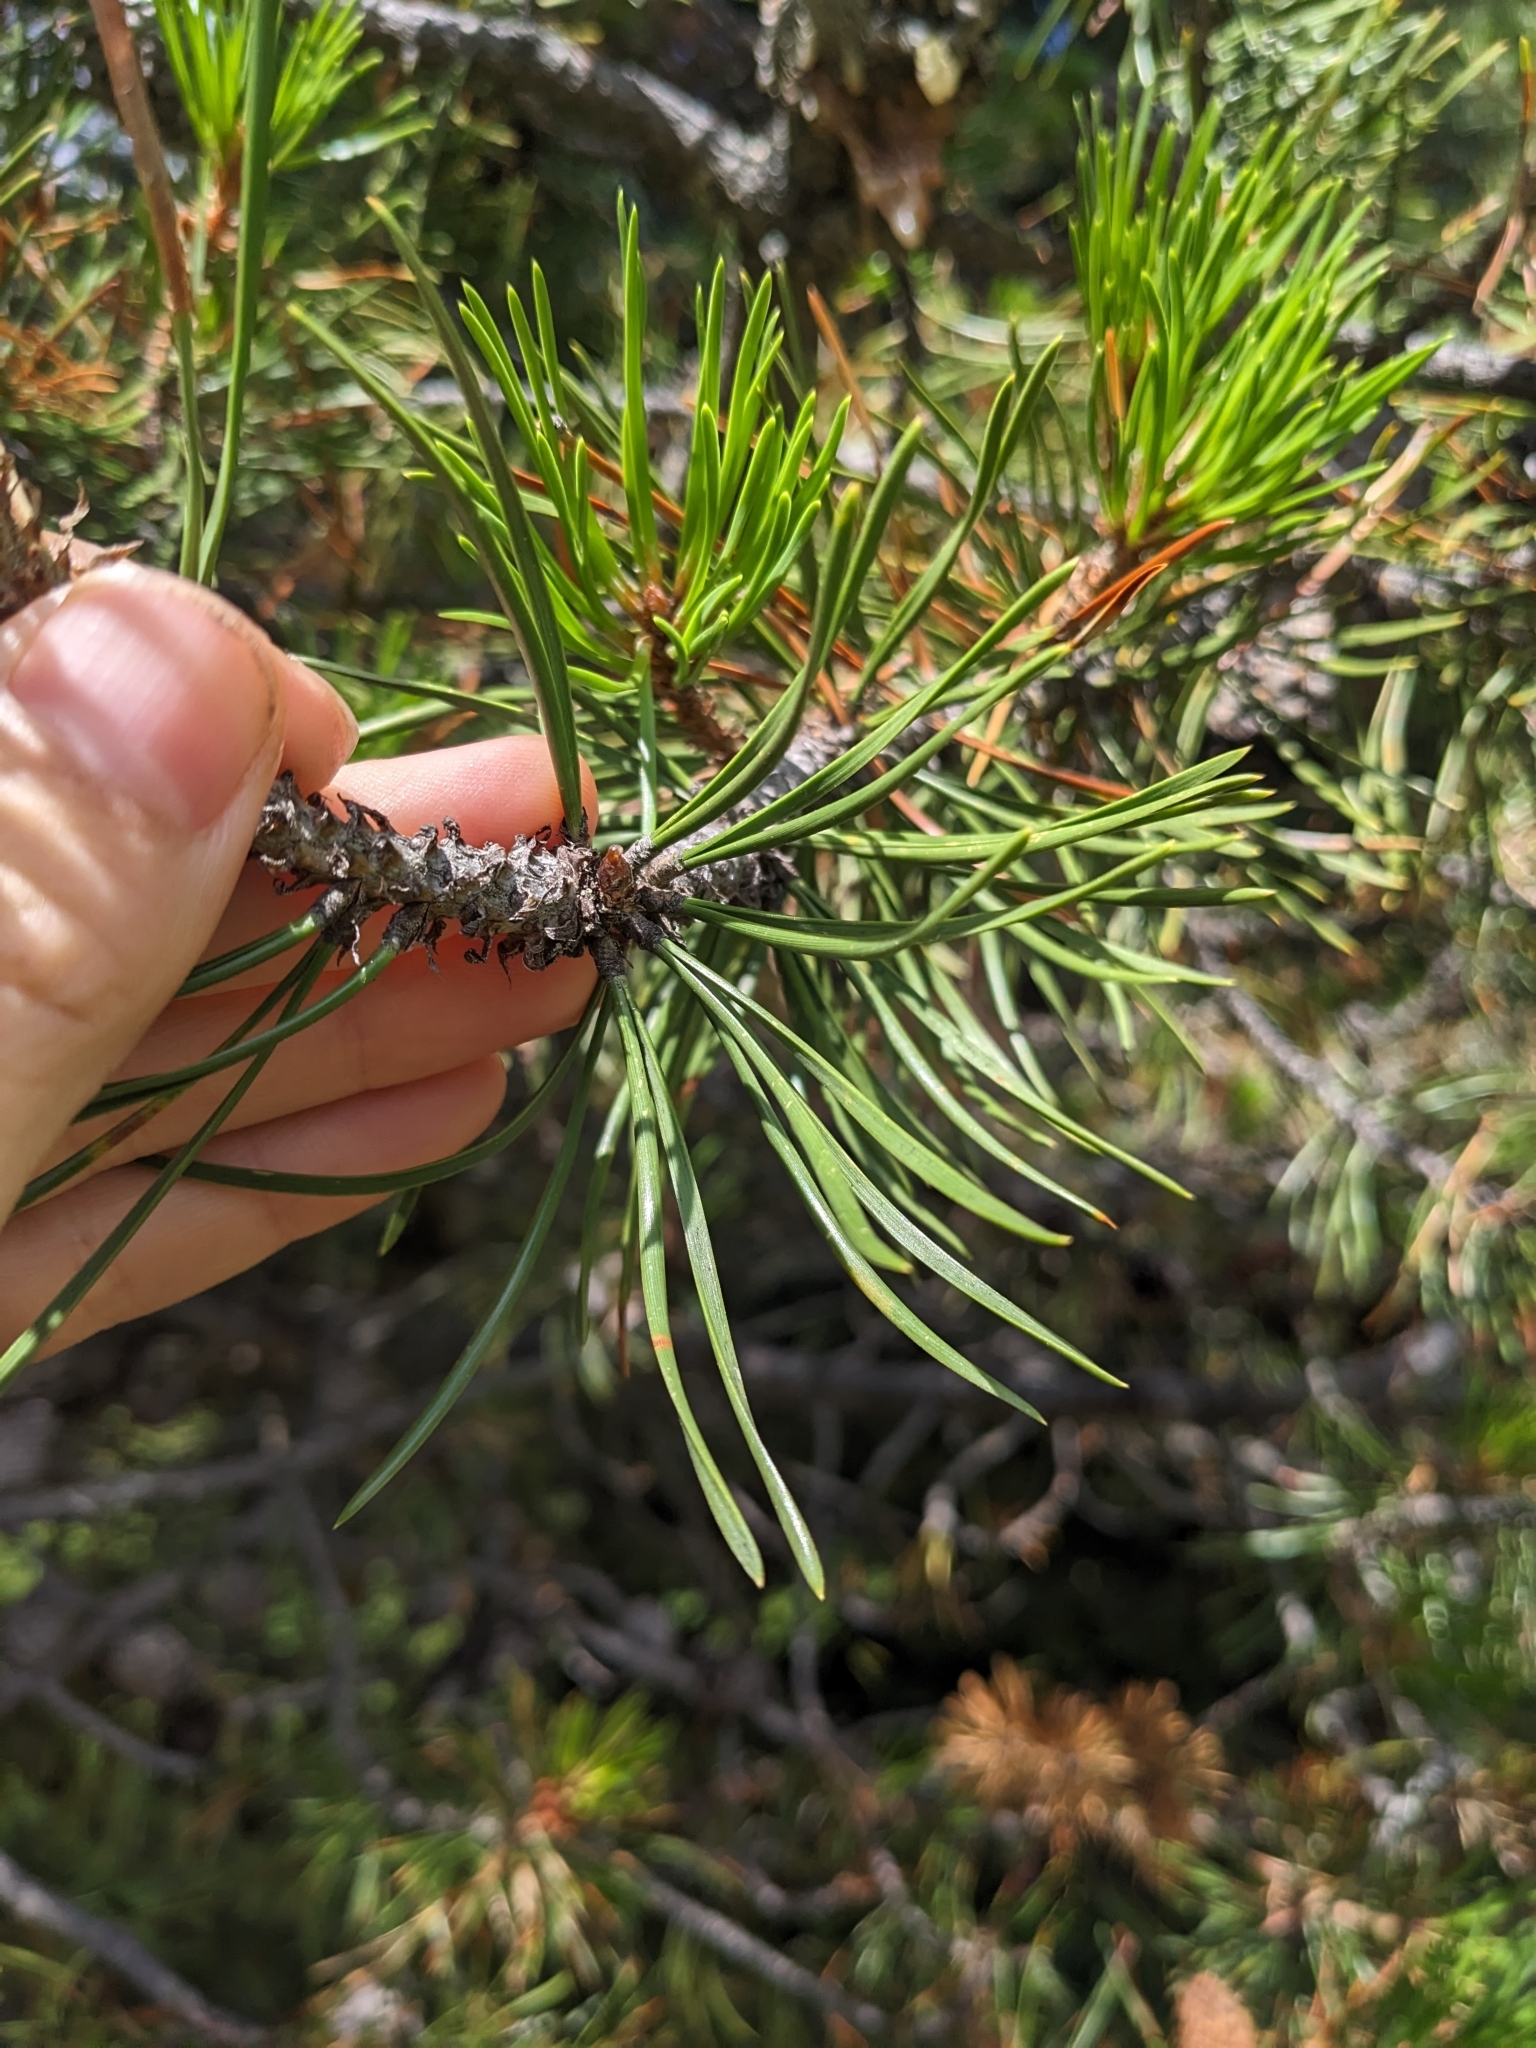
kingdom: Plantae
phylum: Tracheophyta
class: Pinopsida
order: Pinales
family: Pinaceae
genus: Pinus
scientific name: Pinus contorta
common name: Lodgepole pine
